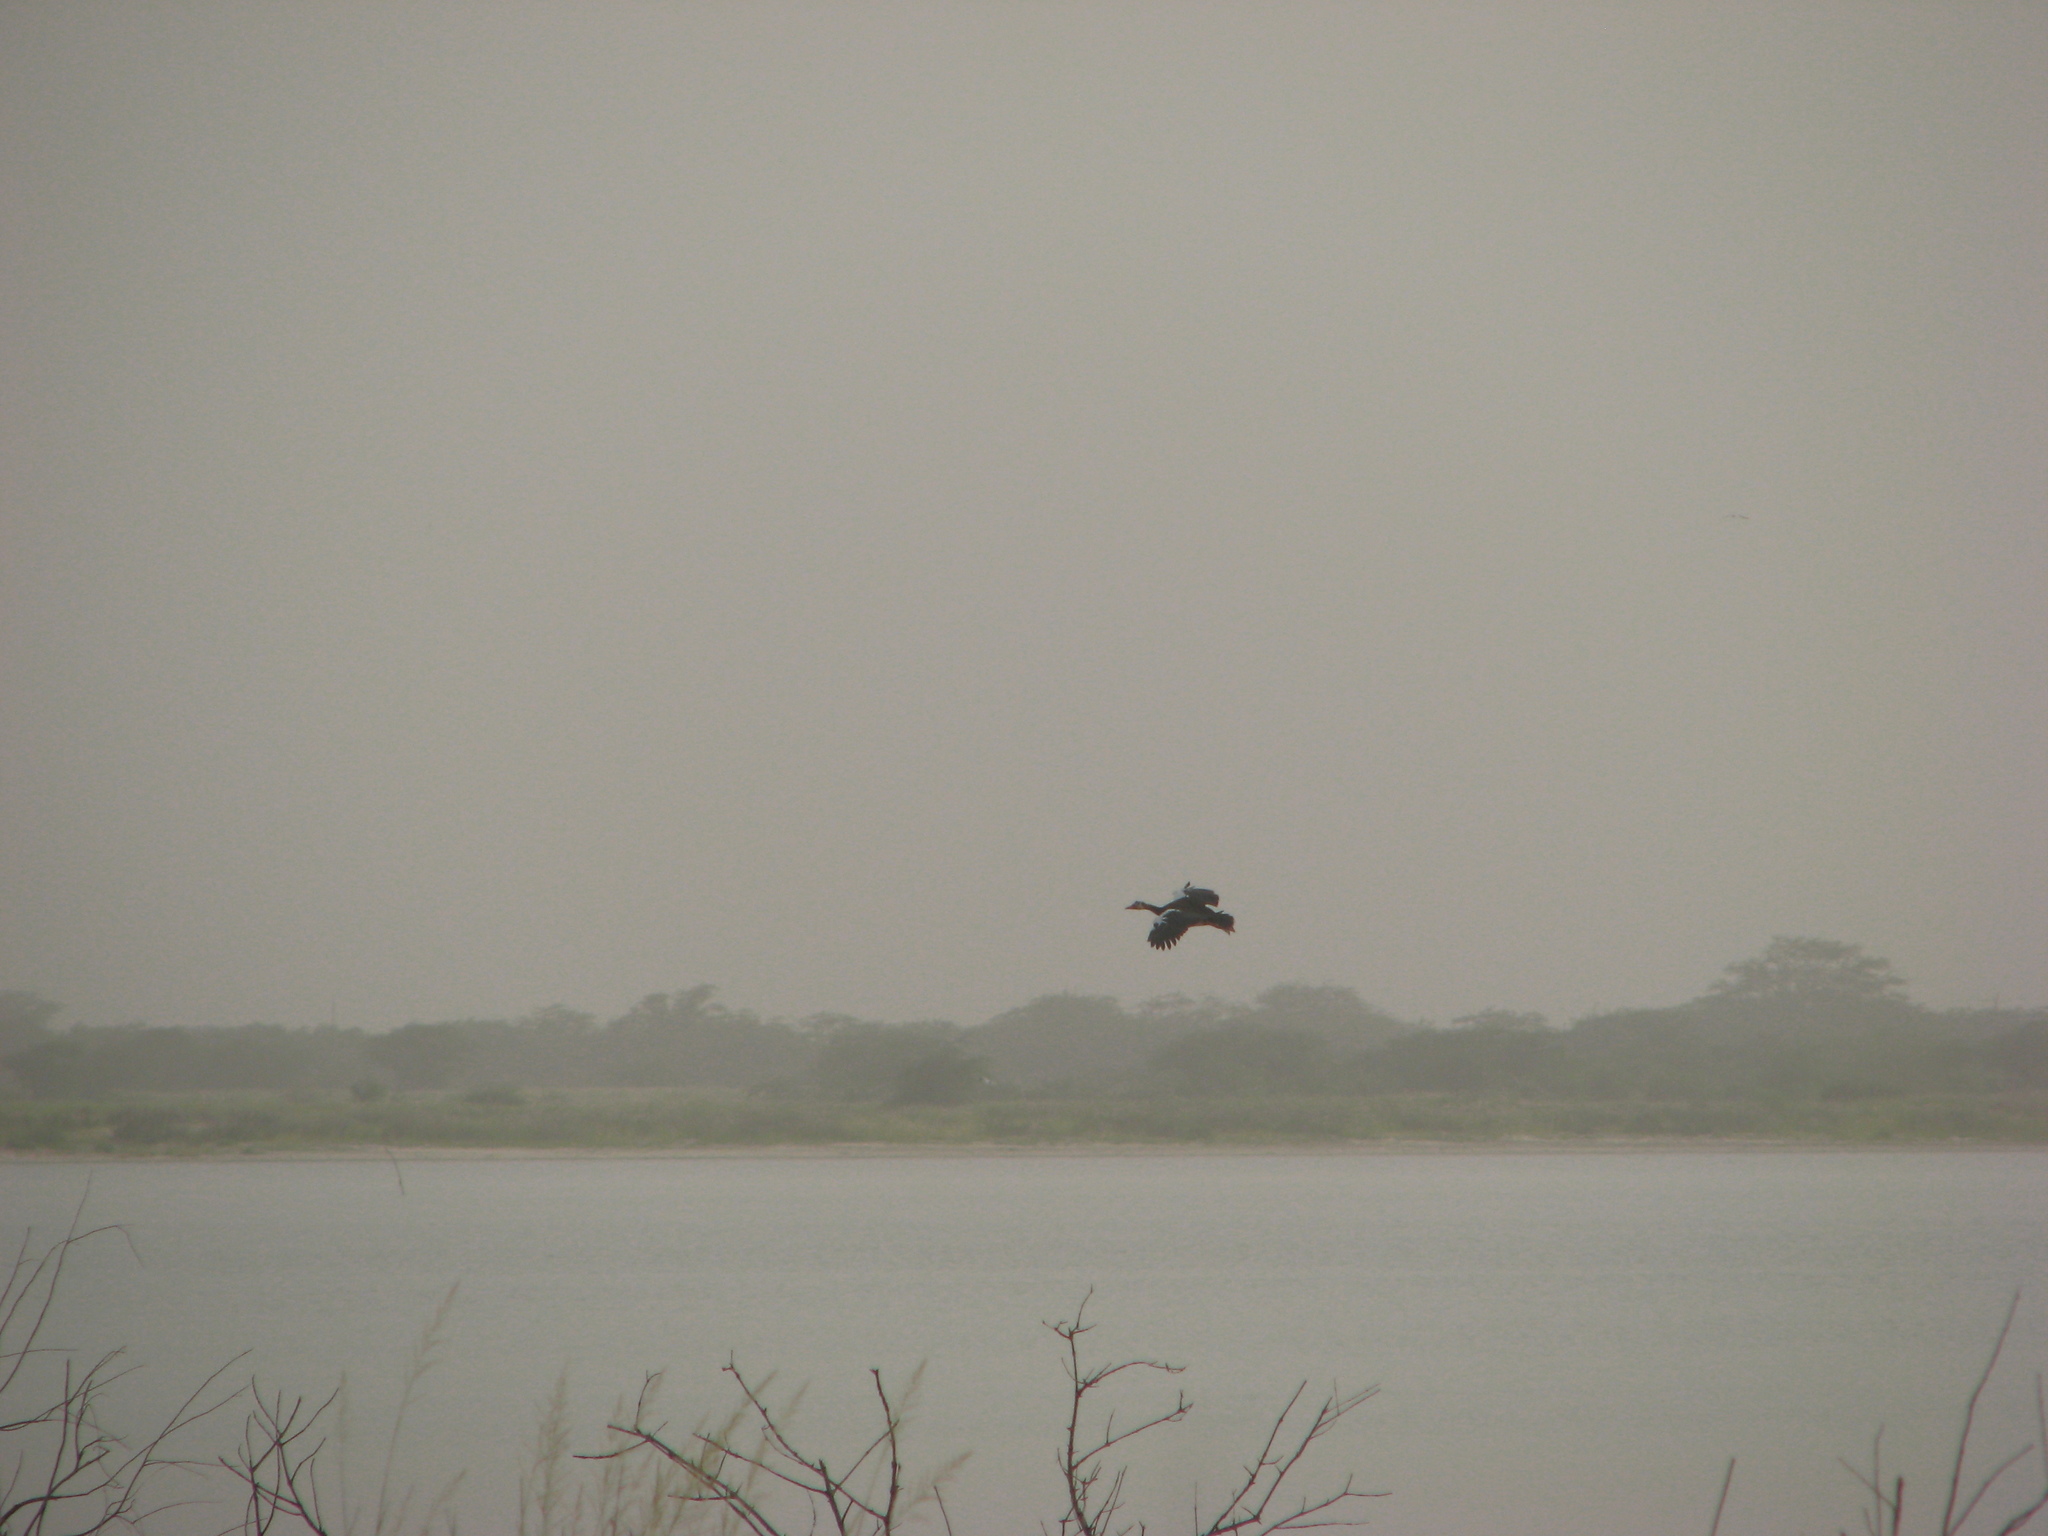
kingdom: Animalia
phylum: Chordata
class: Aves
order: Anseriformes
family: Anatidae
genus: Dendrocygna
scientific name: Dendrocygna viduata
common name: White-faced whistling duck
